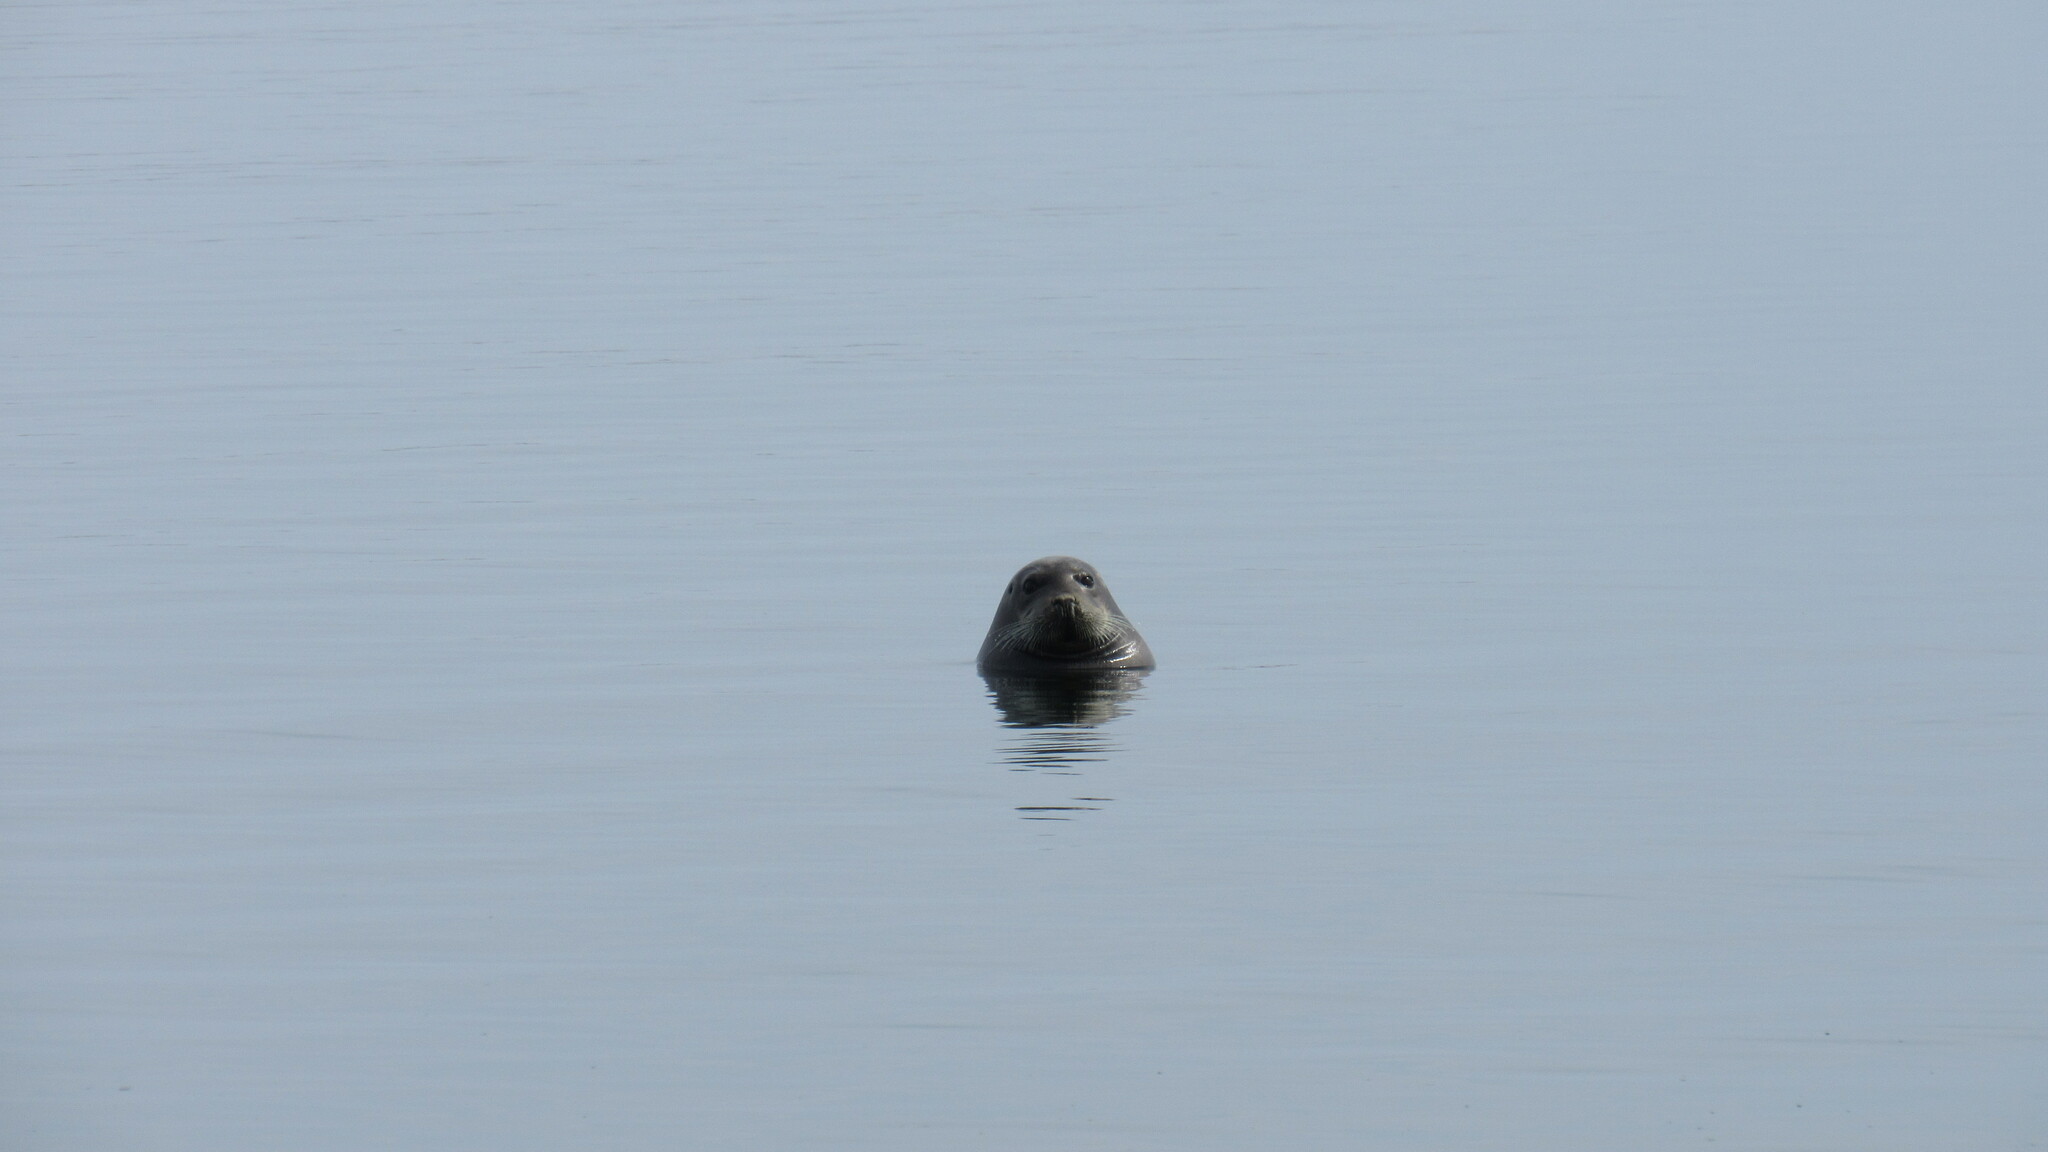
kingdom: Animalia
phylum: Chordata
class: Mammalia
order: Carnivora
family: Phocidae
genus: Erignathus
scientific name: Erignathus barbatus
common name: Bearded seal
